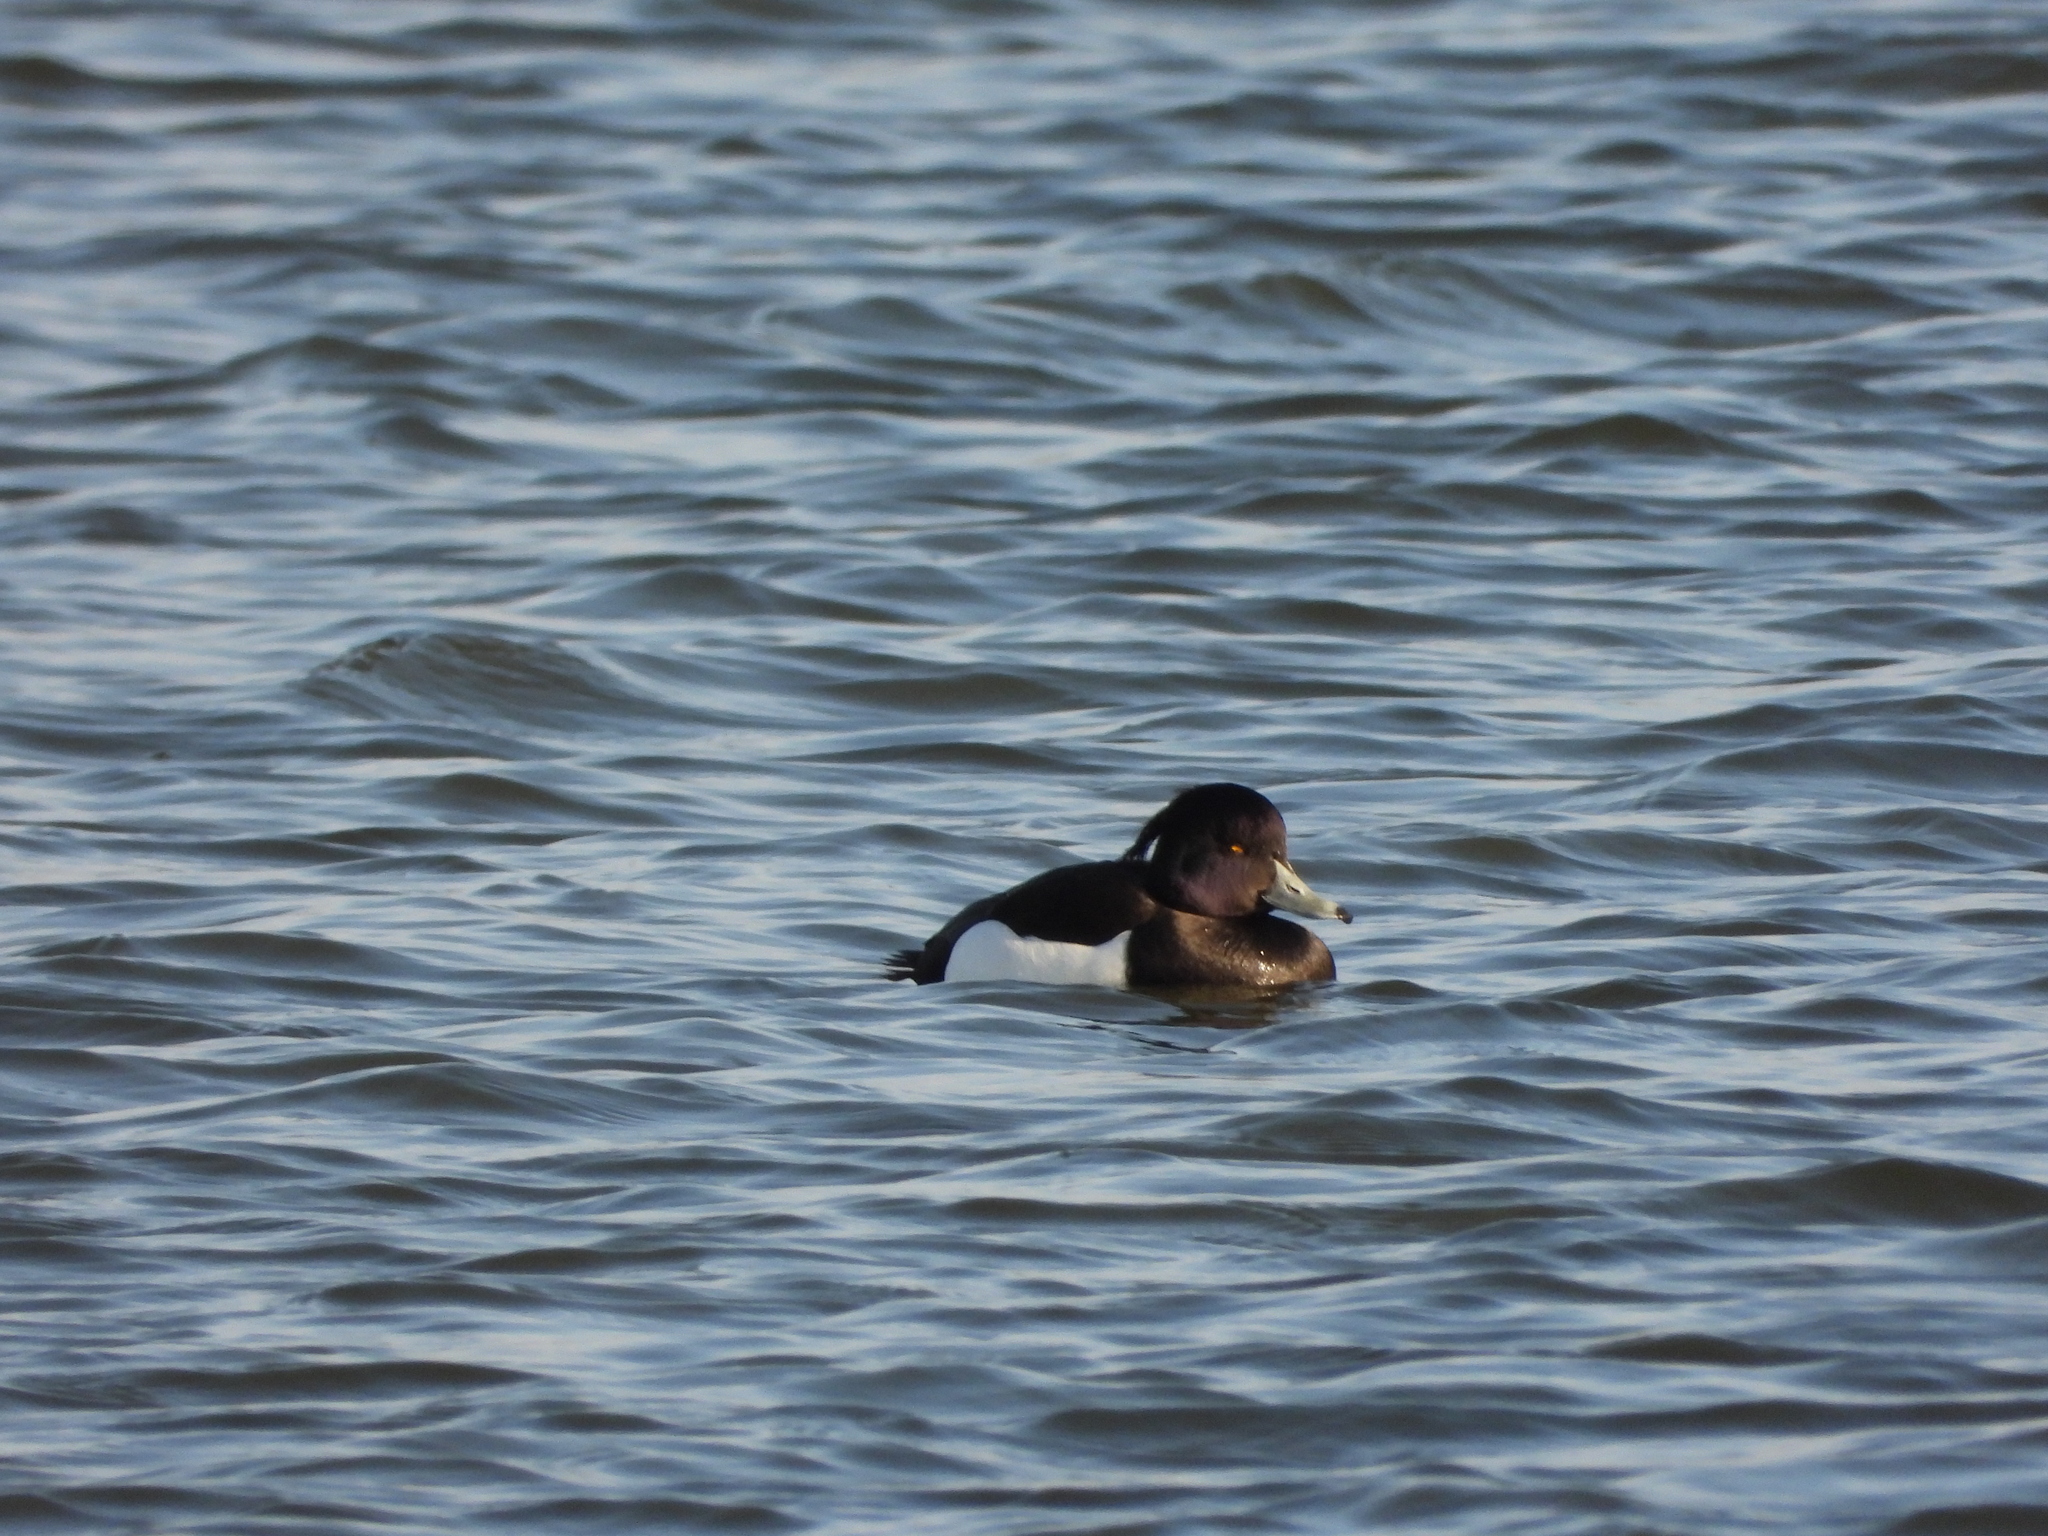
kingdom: Animalia
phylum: Chordata
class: Aves
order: Anseriformes
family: Anatidae
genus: Aythya
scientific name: Aythya fuligula
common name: Tufted duck
